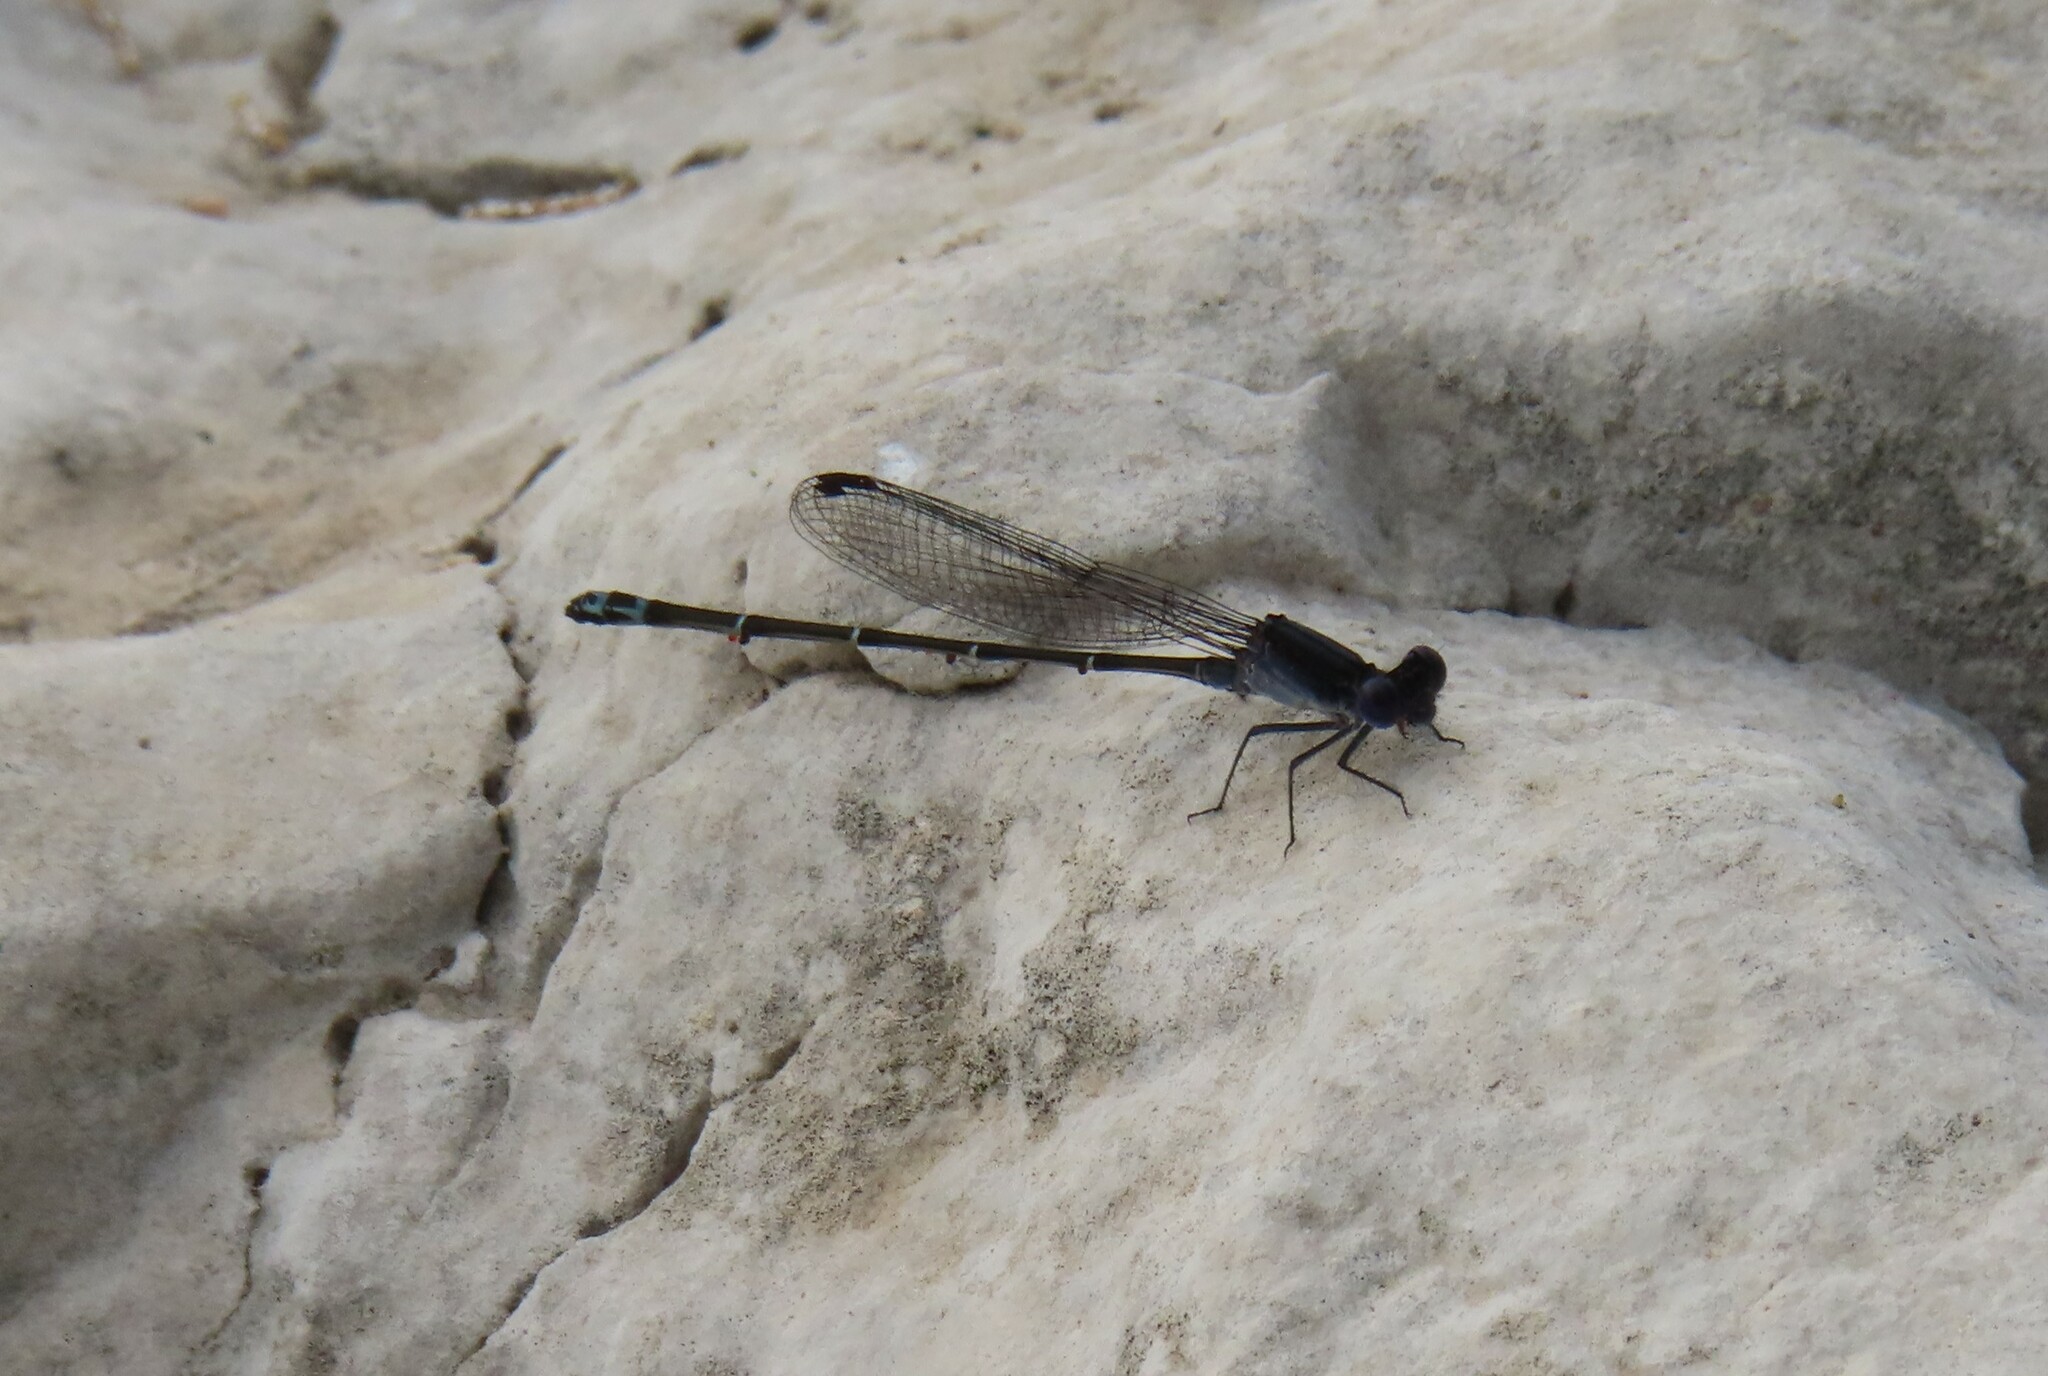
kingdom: Animalia
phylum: Arthropoda
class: Insecta
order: Odonata
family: Coenagrionidae
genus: Argia
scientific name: Argia translata
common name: Dusky dancer
